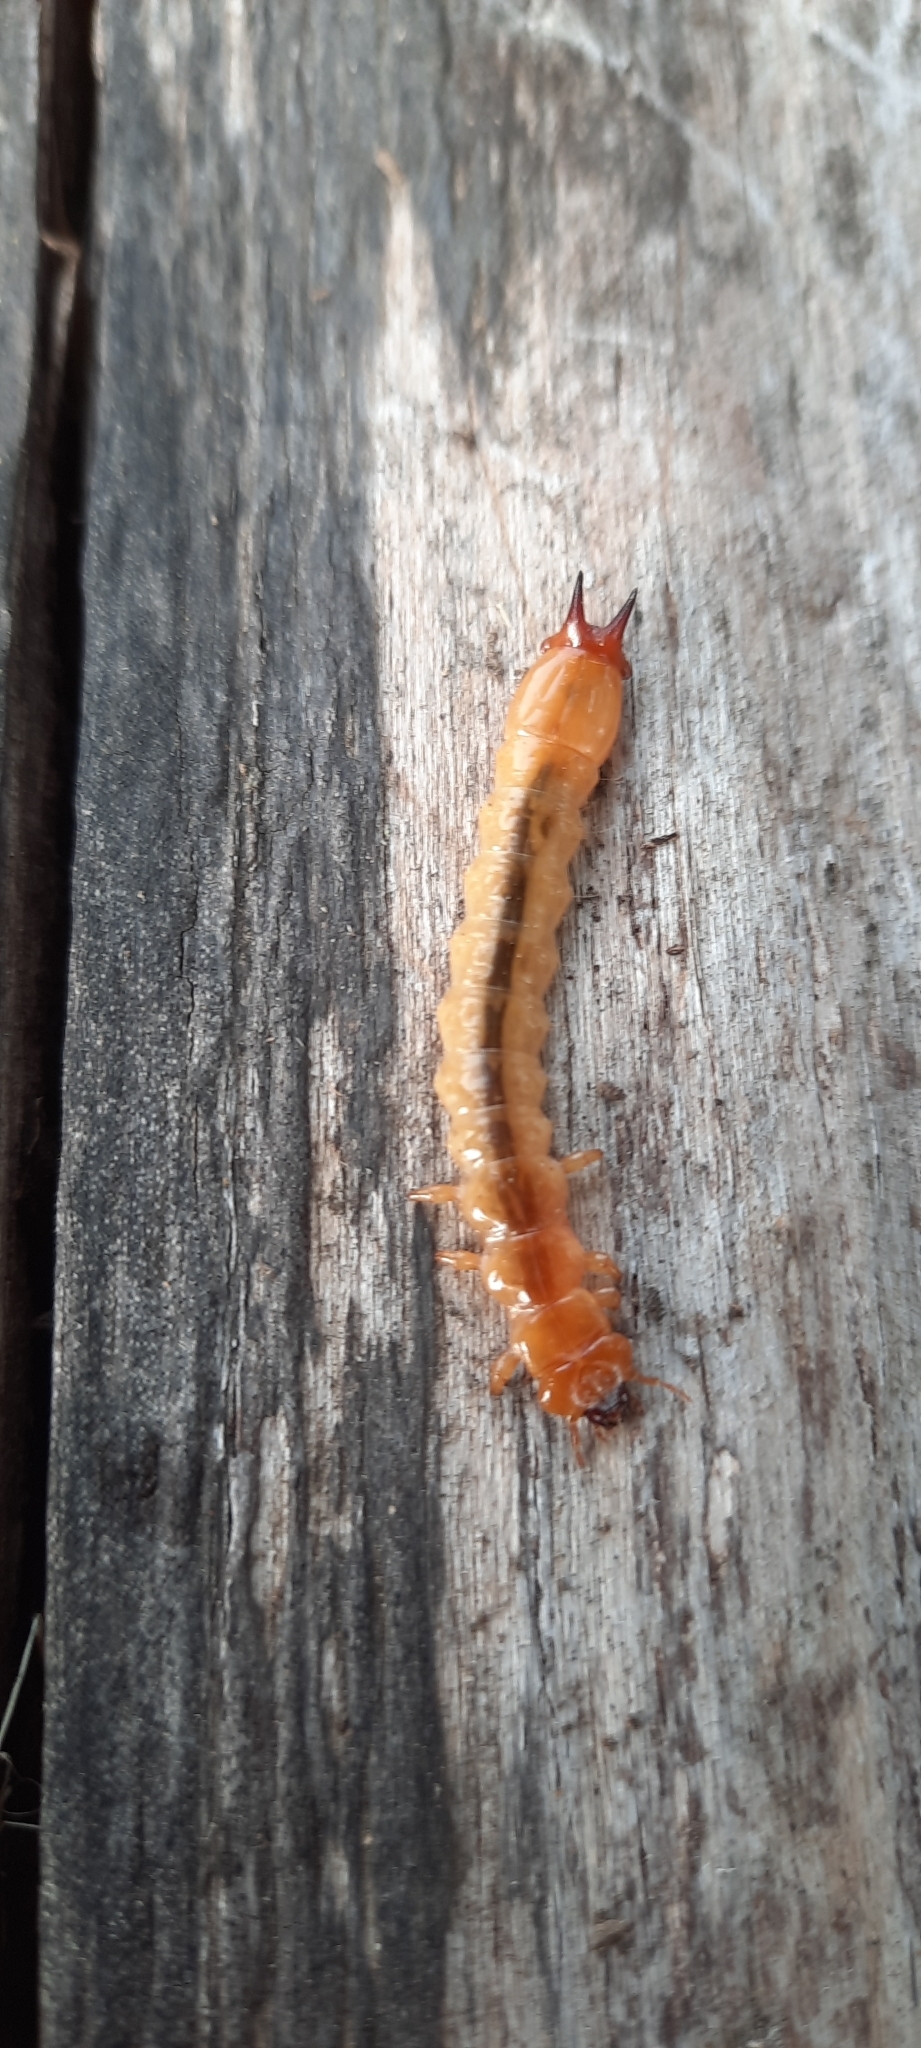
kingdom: Animalia
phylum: Arthropoda
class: Insecta
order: Coleoptera
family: Pyrochroidae
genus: Pyrochroa
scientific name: Pyrochroa coccinea
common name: Black-headed cardinal beetle
